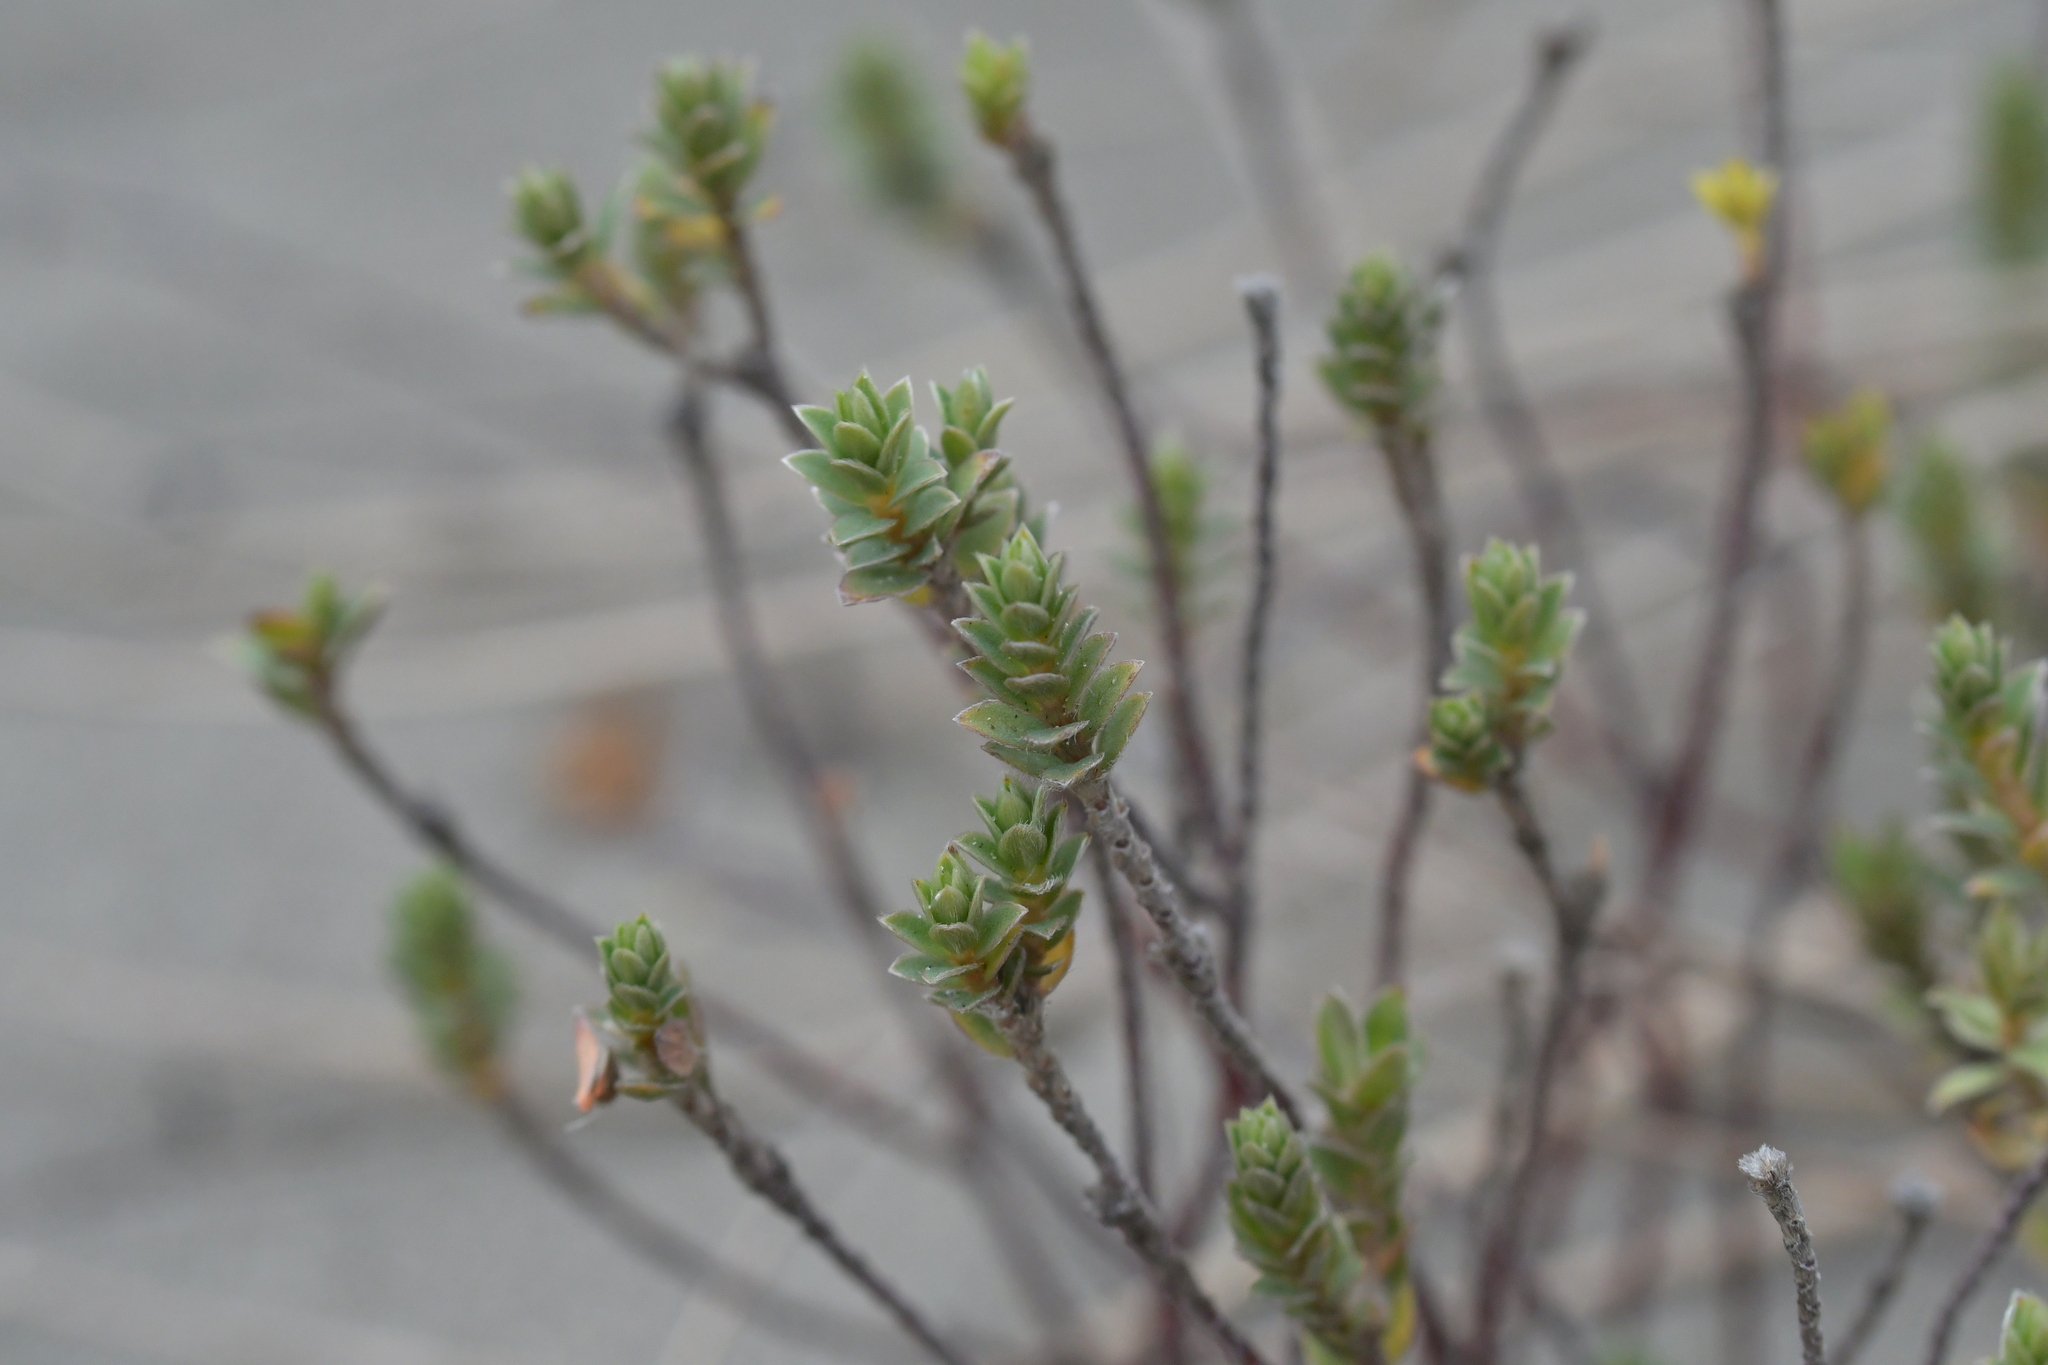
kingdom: Plantae
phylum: Tracheophyta
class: Magnoliopsida
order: Malvales
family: Thymelaeaceae
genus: Pimelea
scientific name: Pimelea villosa
